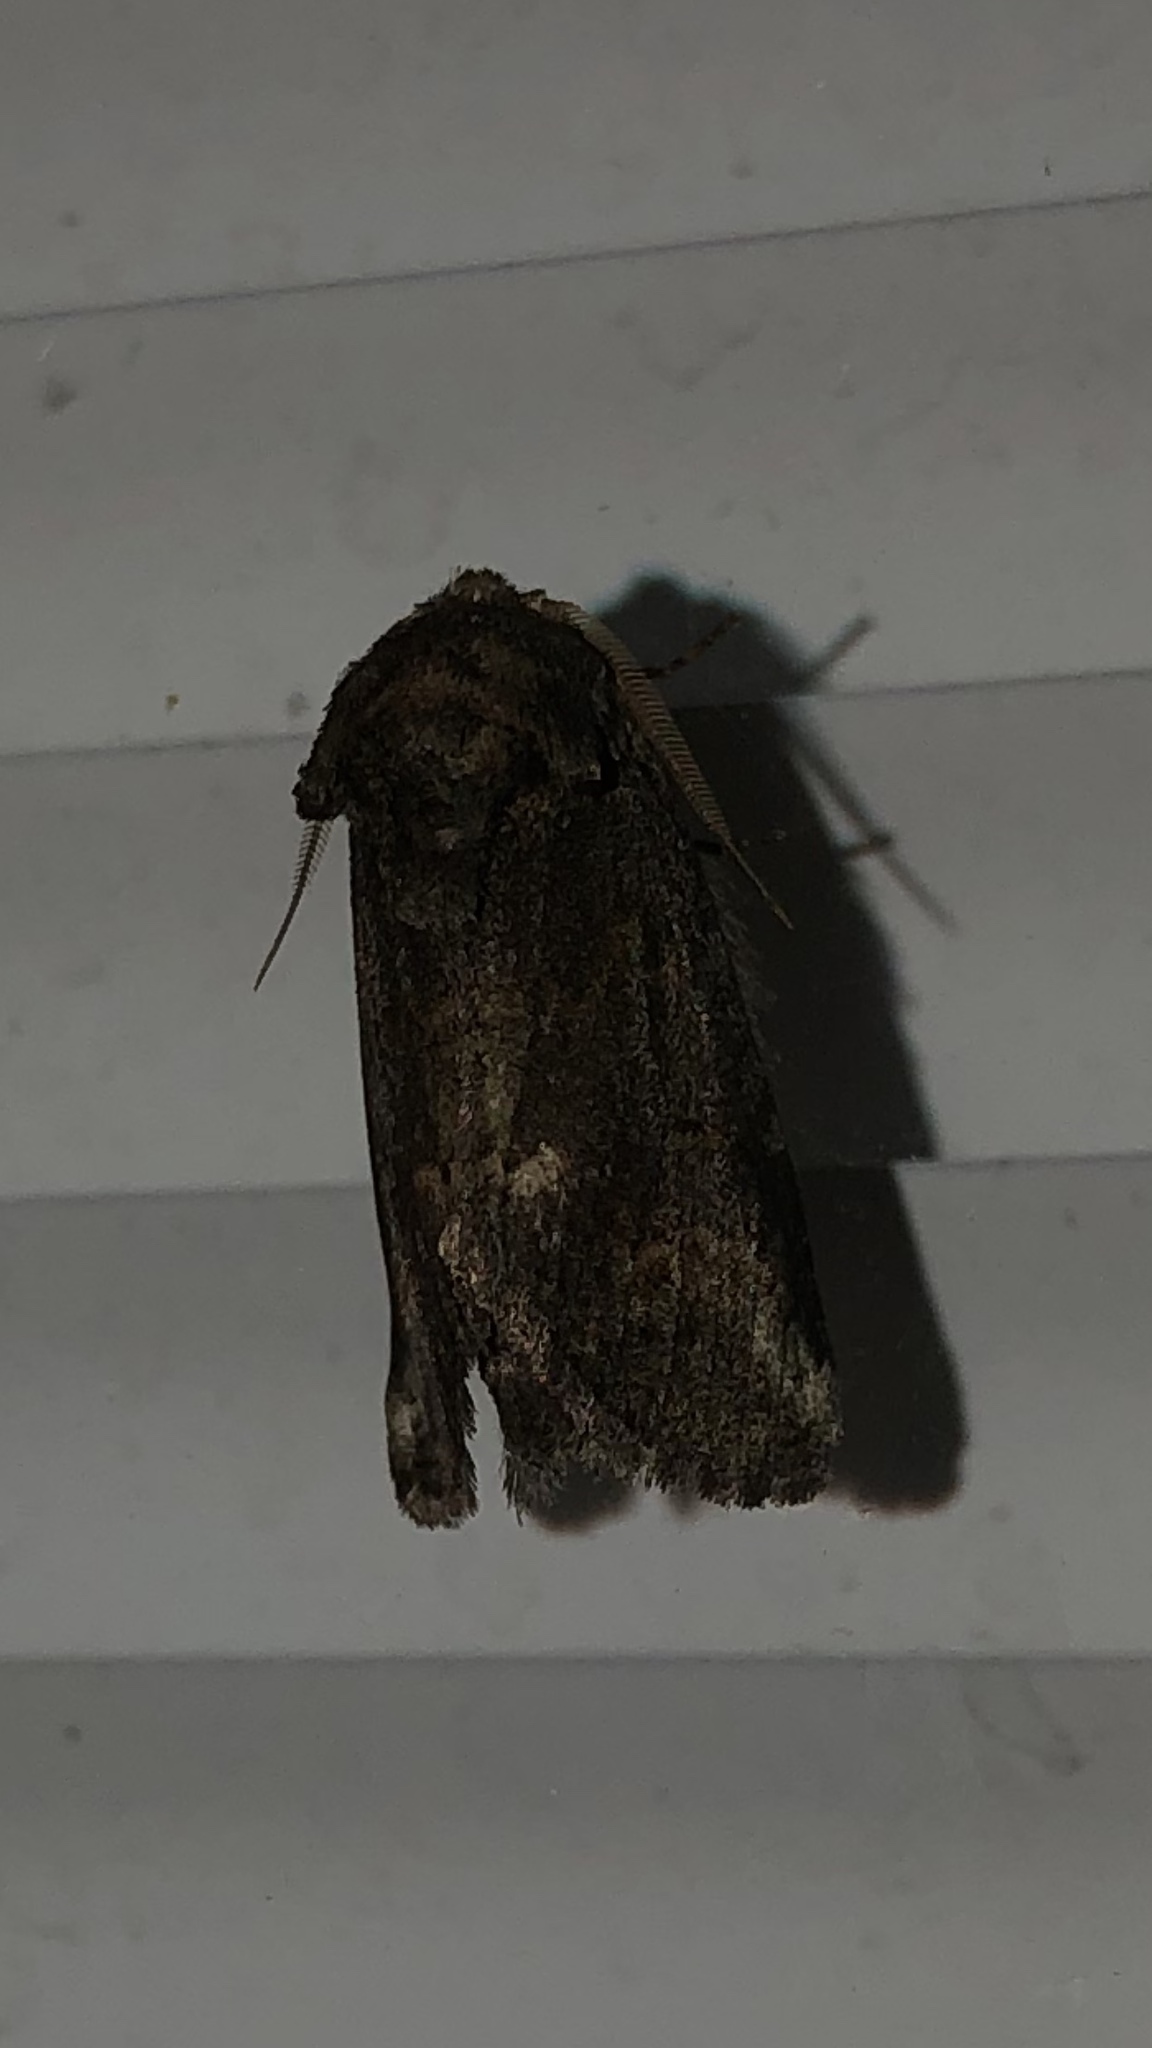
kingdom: Animalia
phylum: Arthropoda
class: Insecta
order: Lepidoptera
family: Notodontidae
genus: Rifargia
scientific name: Rifargia
